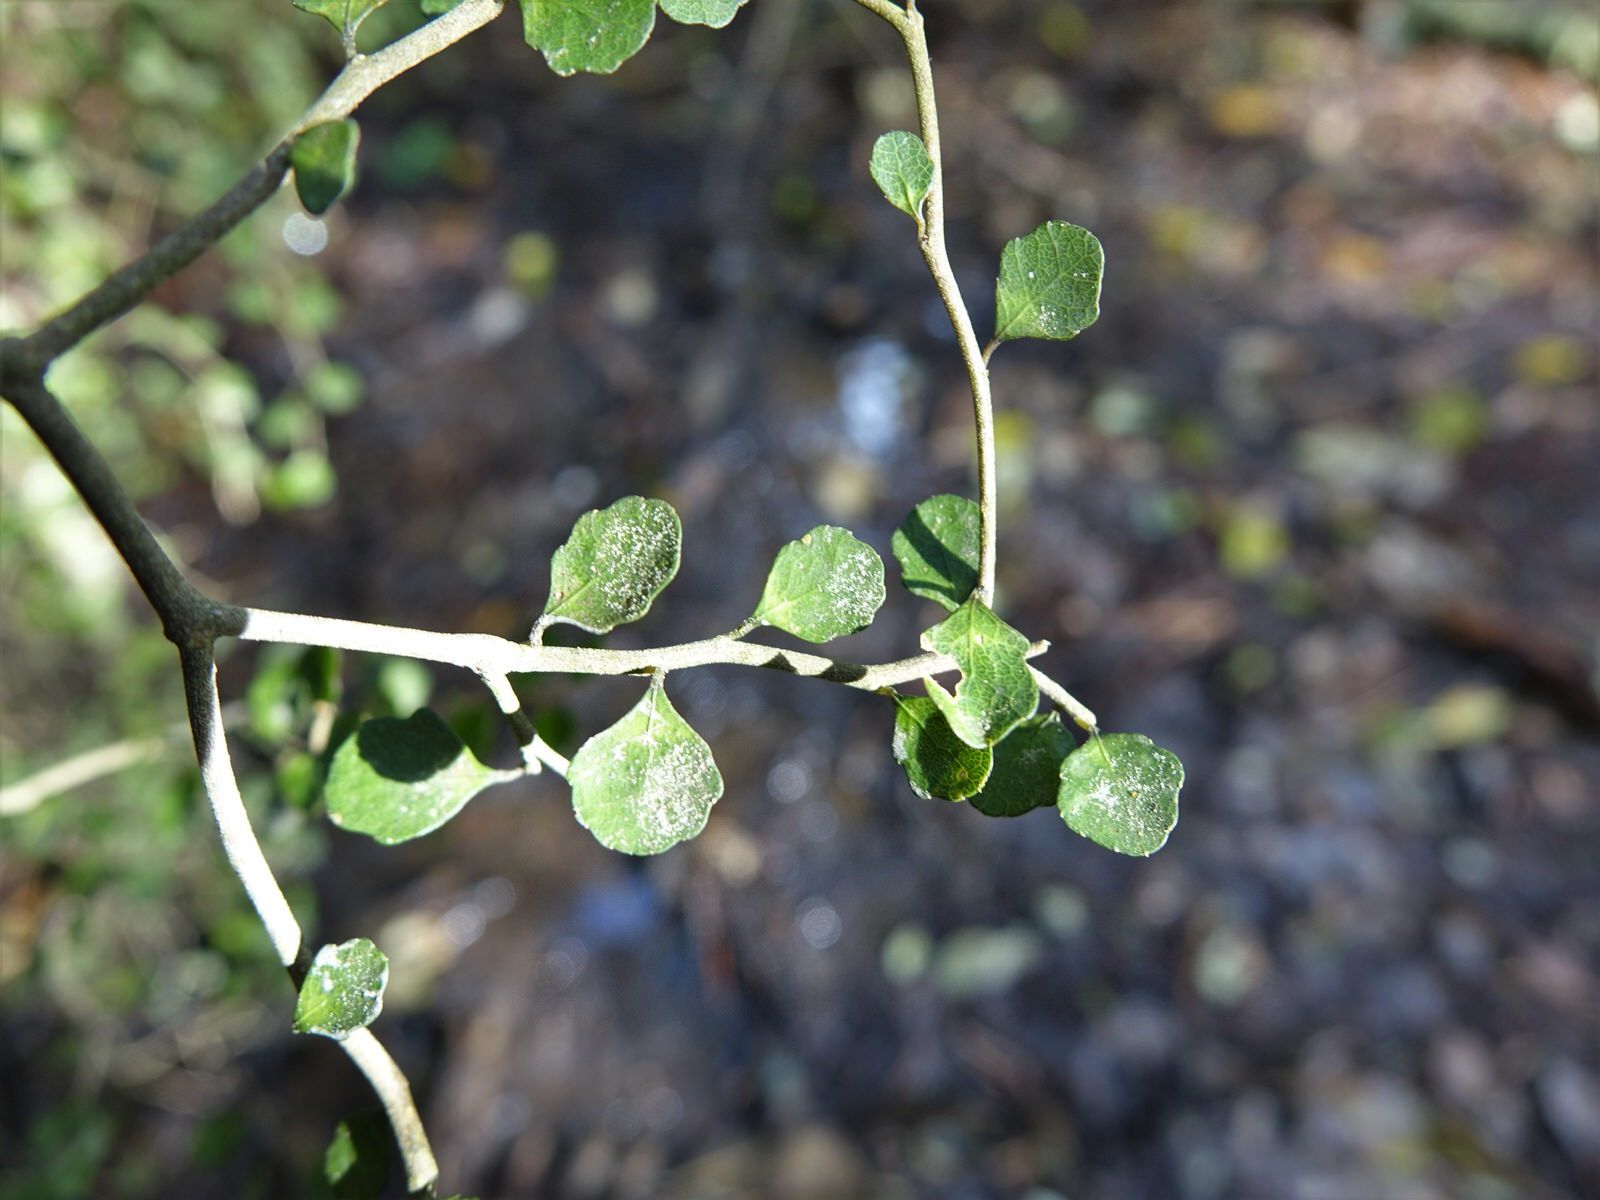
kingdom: Plantae
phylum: Tracheophyta
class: Magnoliopsida
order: Malpighiales
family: Violaceae
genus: Melicytus
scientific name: Melicytus micranthus
